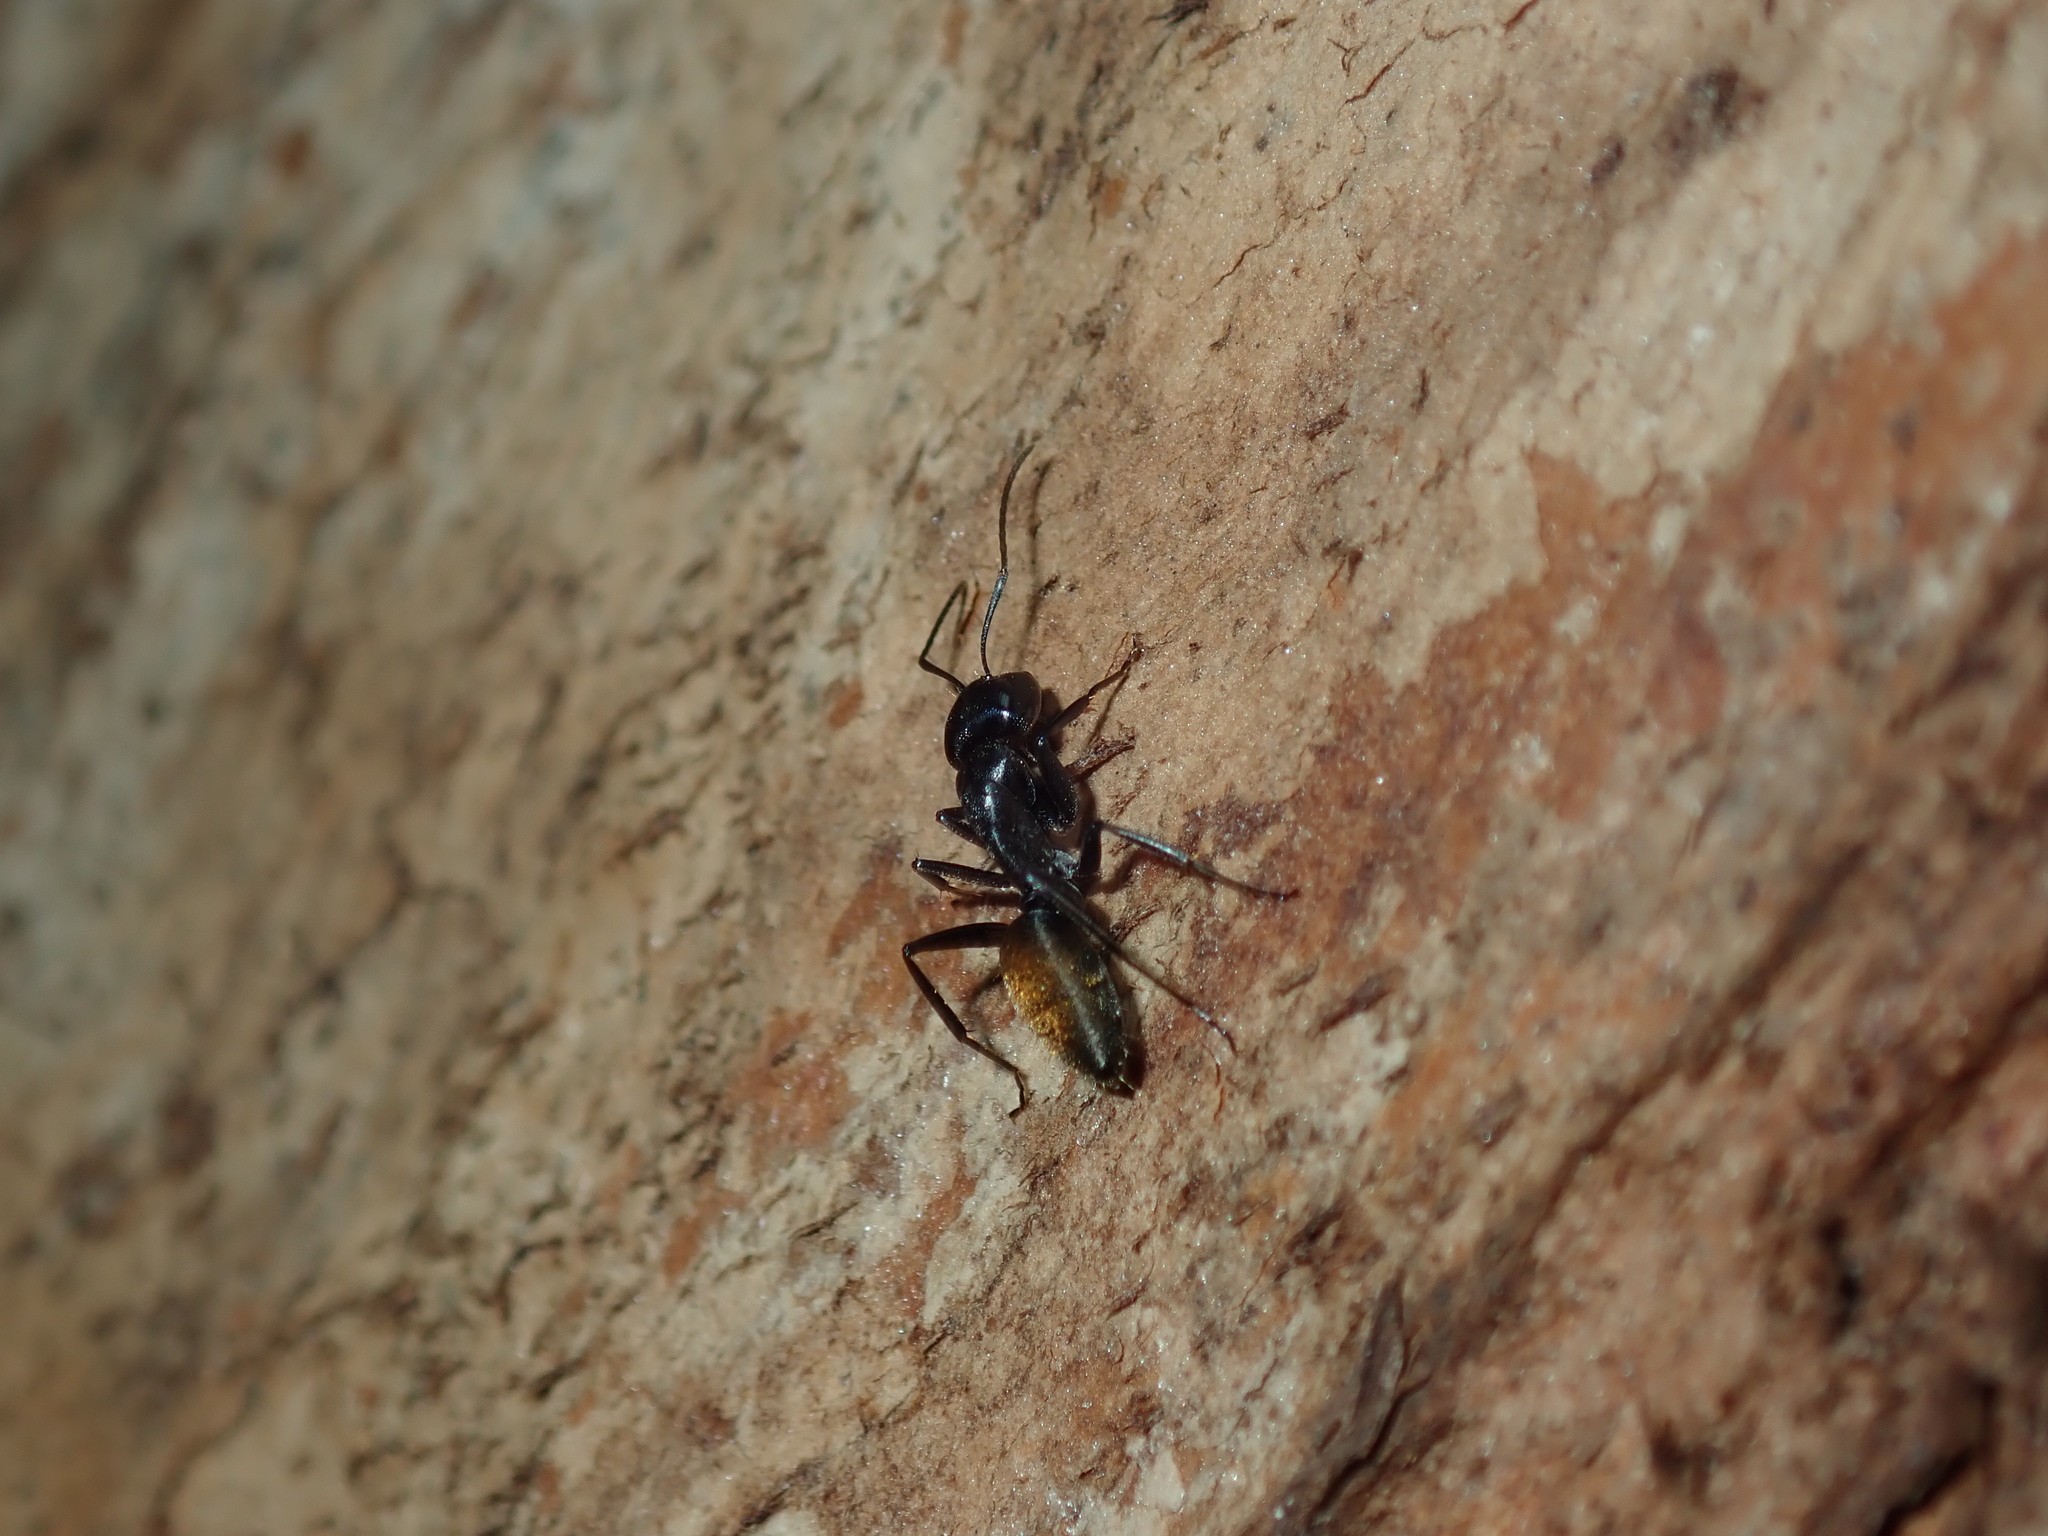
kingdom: Animalia
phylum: Arthropoda
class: Insecta
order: Hymenoptera
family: Formicidae
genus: Camponotus
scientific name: Camponotus aeneopilosus
